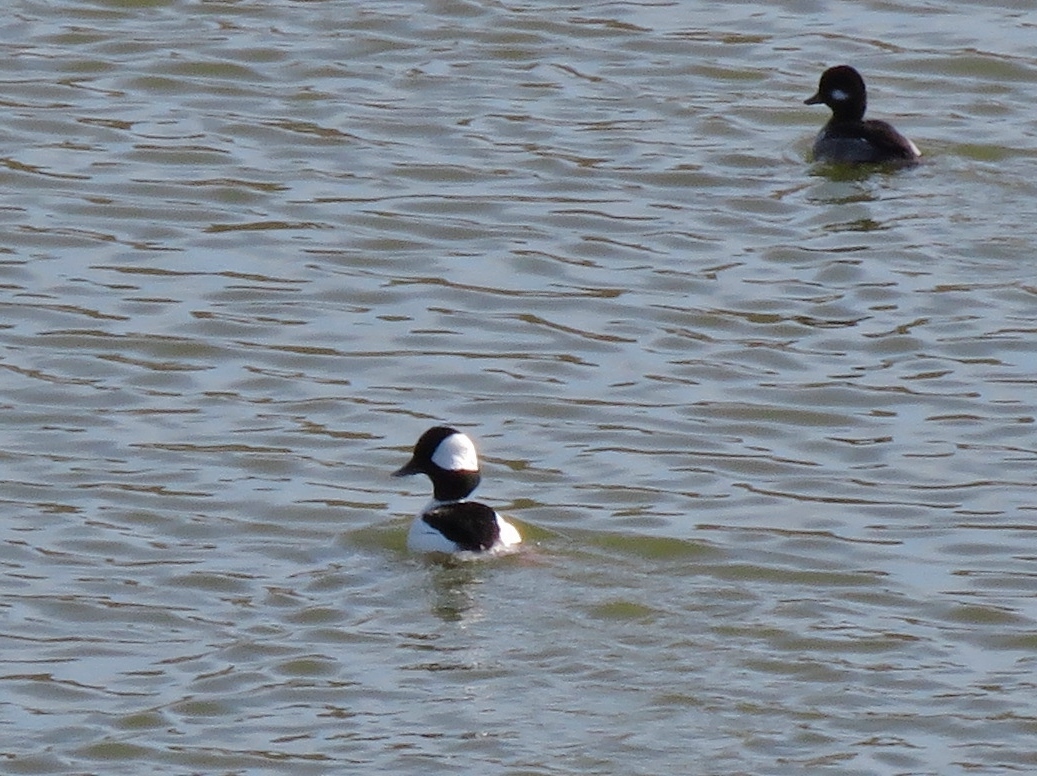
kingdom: Animalia
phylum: Chordata
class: Aves
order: Anseriformes
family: Anatidae
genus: Bucephala
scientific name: Bucephala albeola
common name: Bufflehead
